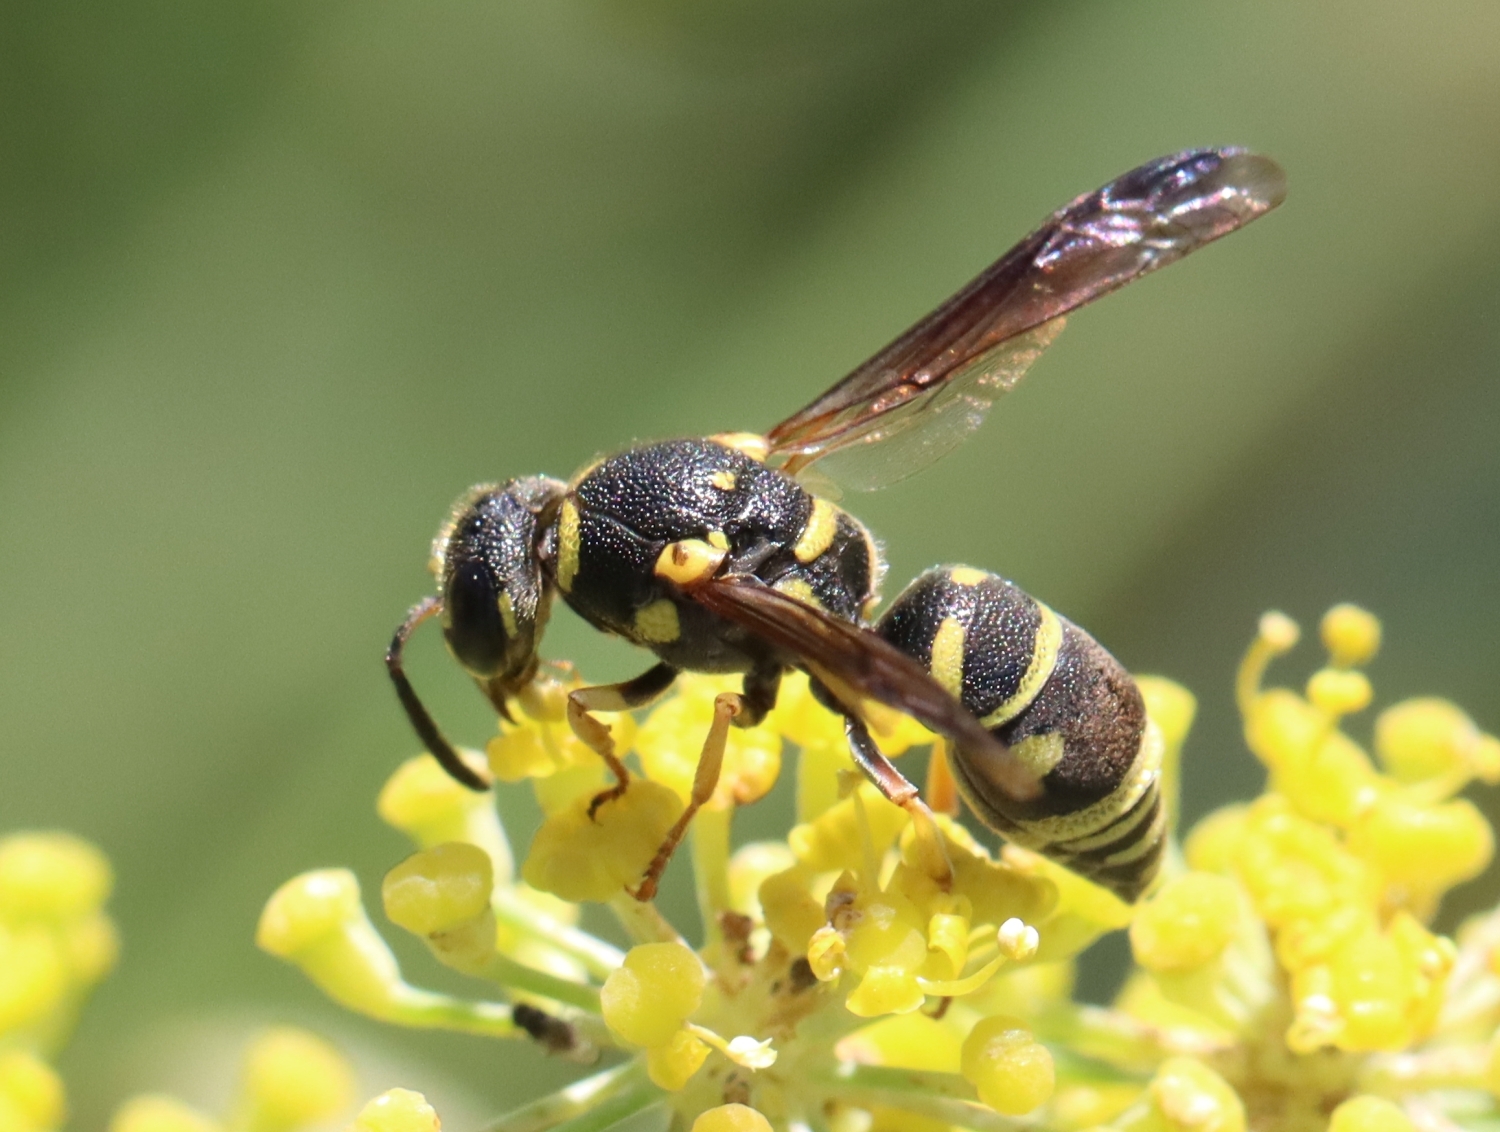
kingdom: Animalia
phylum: Arthropoda
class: Insecta
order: Hymenoptera
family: Eumenidae
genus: Parancistrocerus
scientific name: Parancistrocerus leionotus
